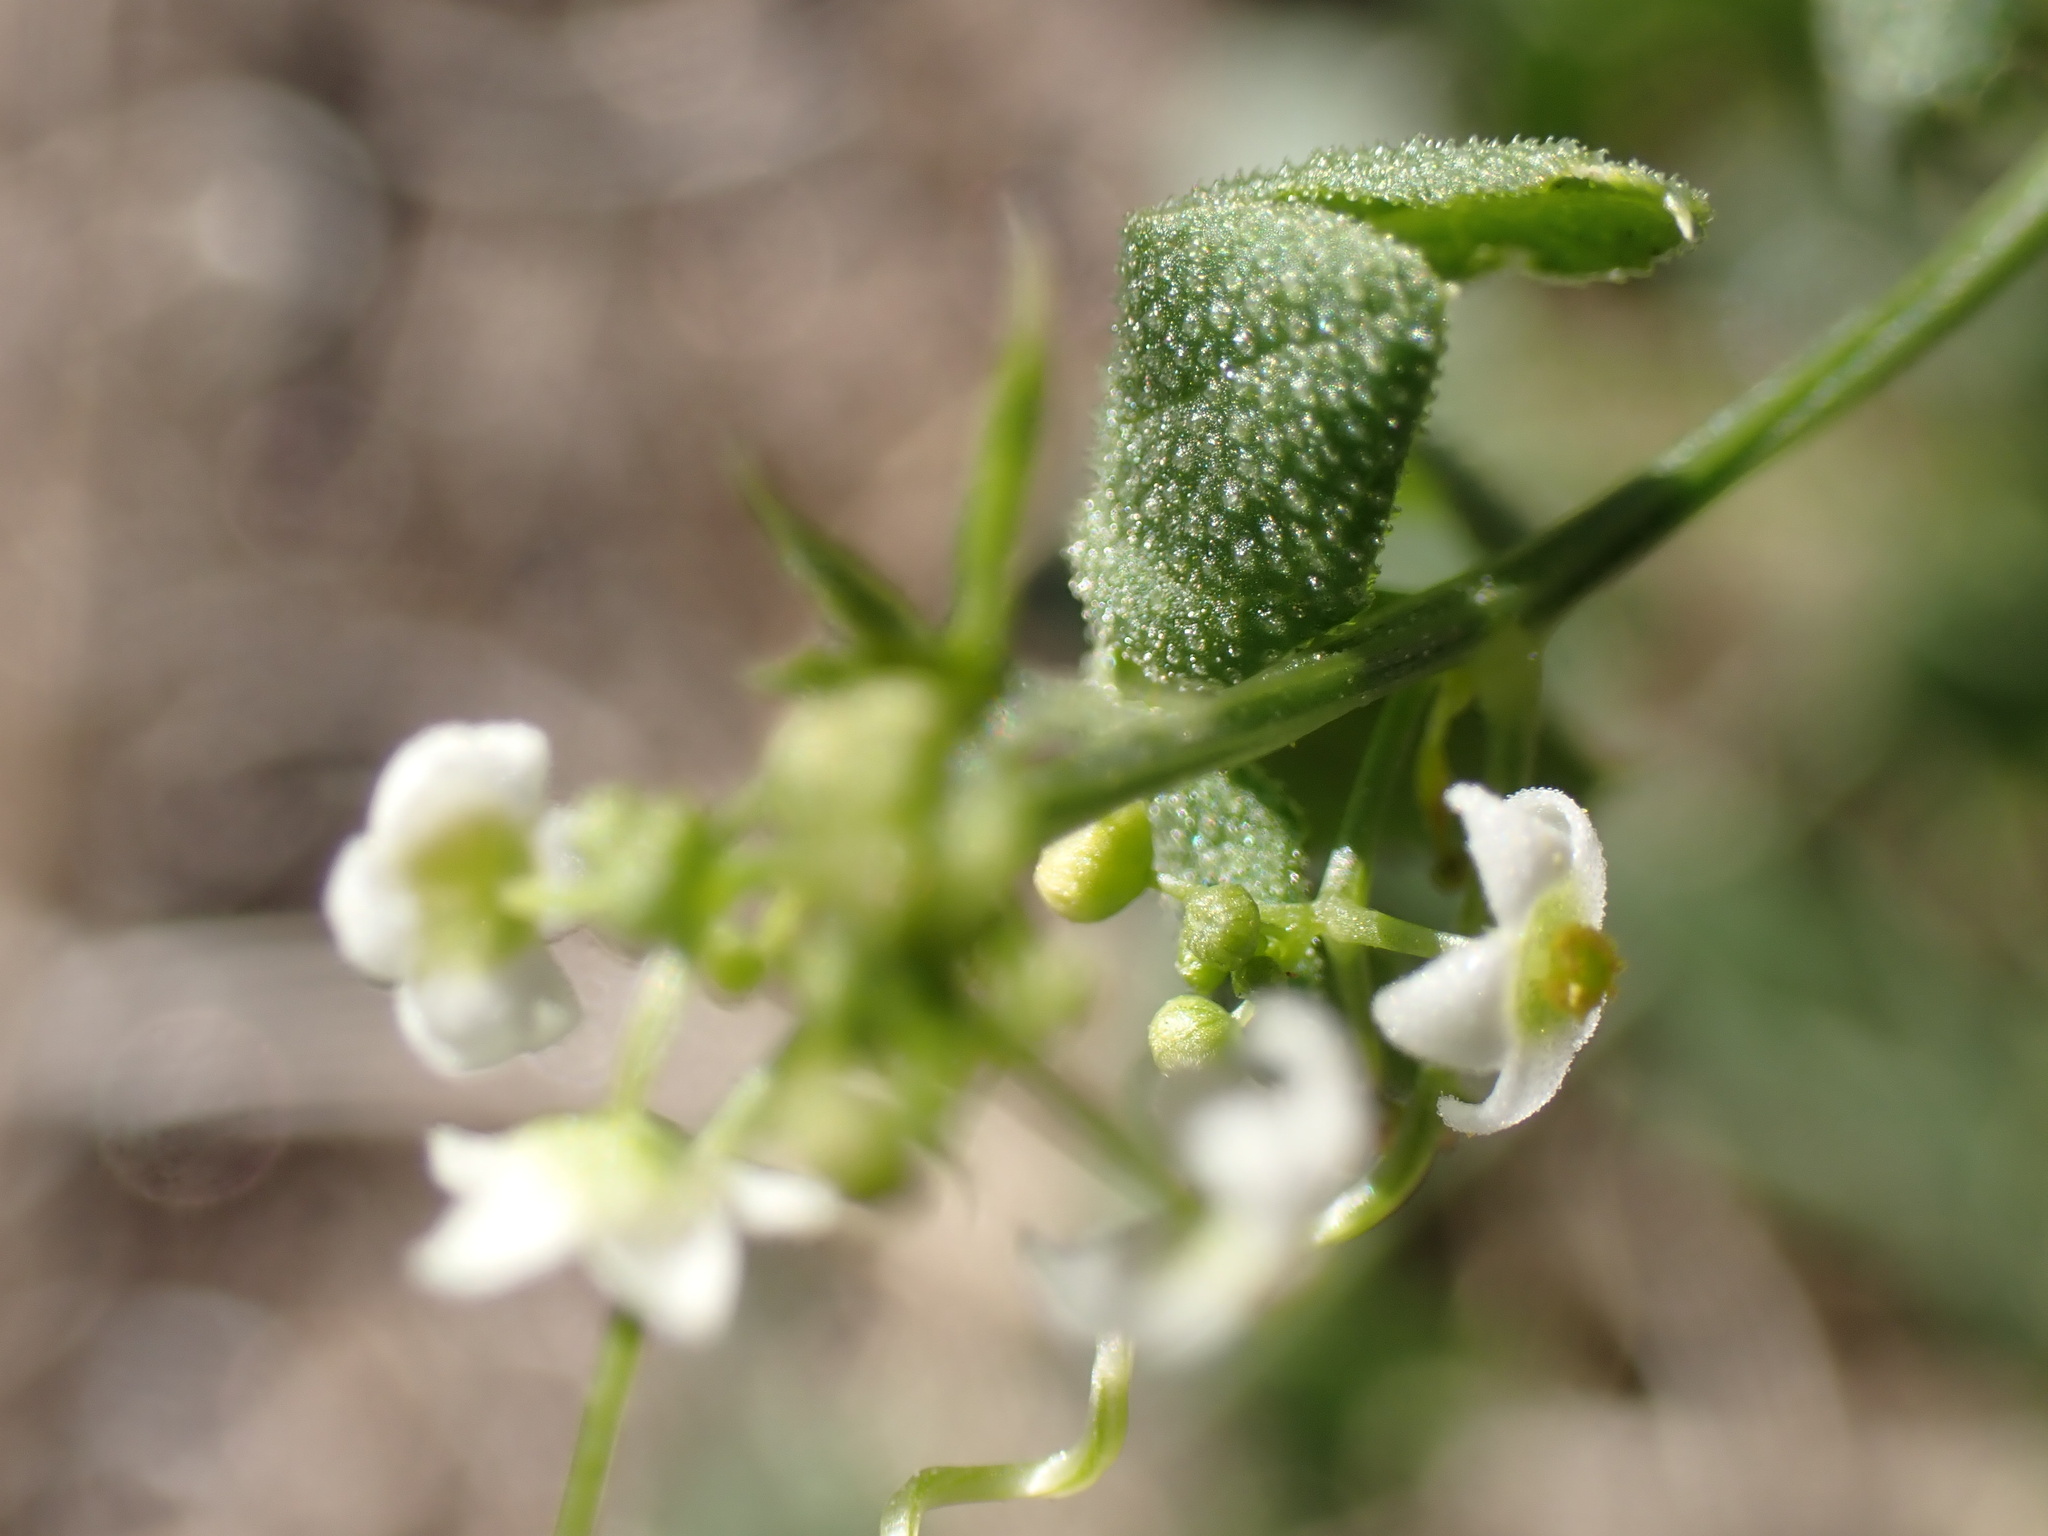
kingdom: Plantae
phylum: Tracheophyta
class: Magnoliopsida
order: Cucurbitales
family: Cucurbitaceae
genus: Echinopepon
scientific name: Echinopepon bigelovii
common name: Desert starvine
